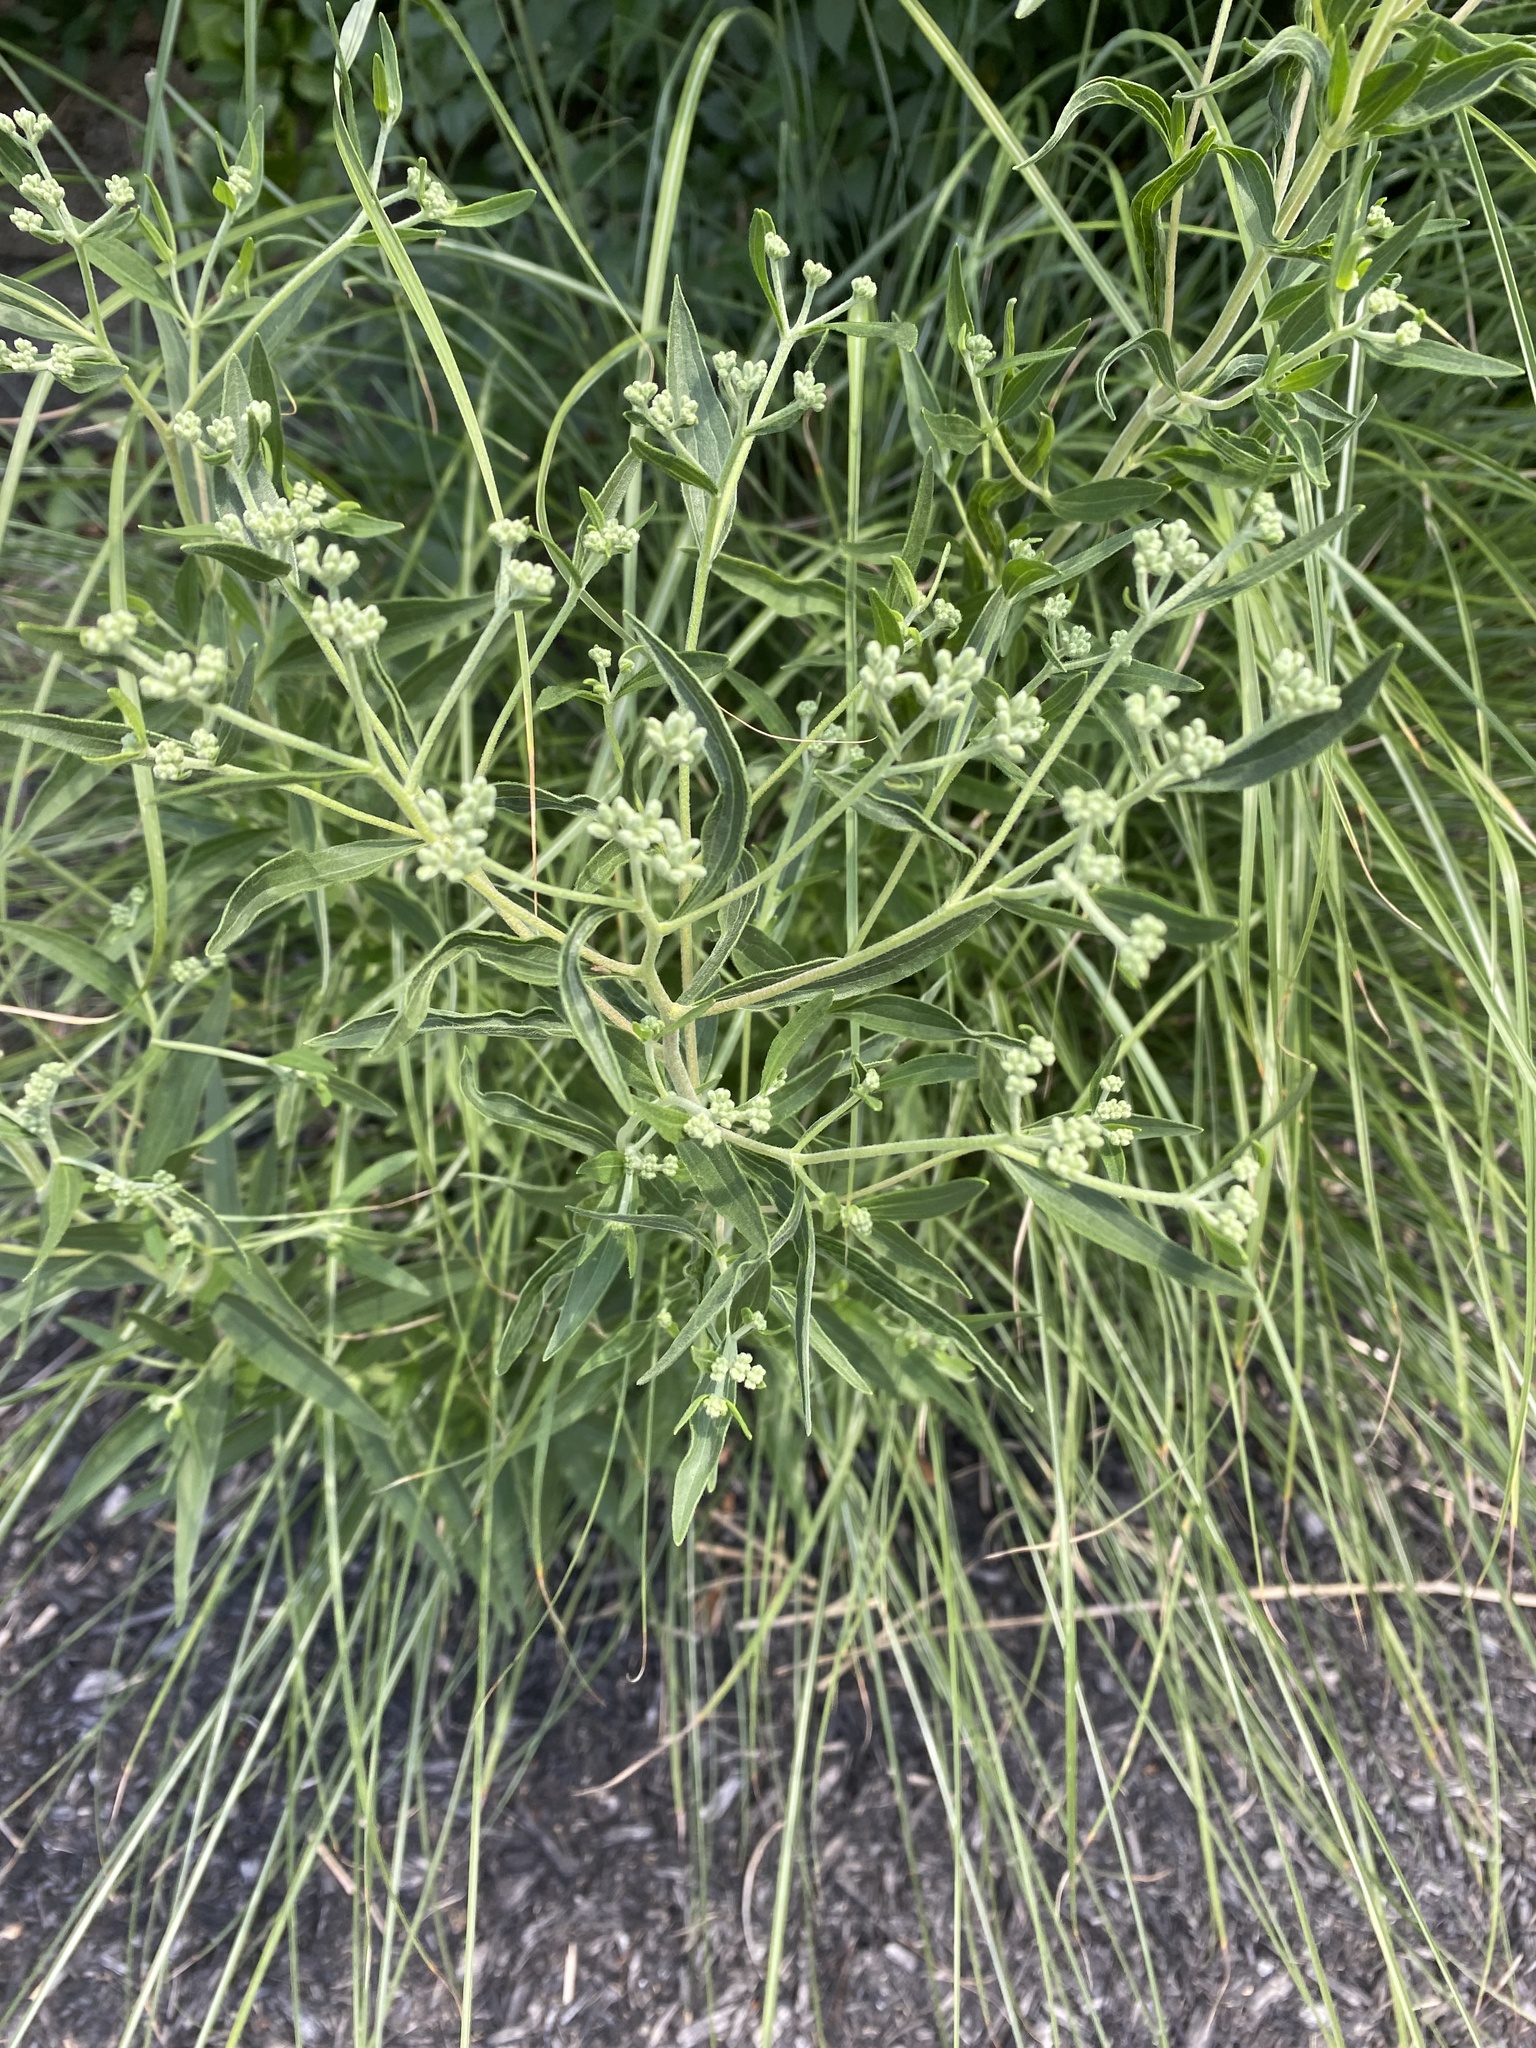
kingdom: Plantae
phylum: Tracheophyta
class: Magnoliopsida
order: Asterales
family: Asteraceae
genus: Eupatorium
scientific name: Eupatorium serotinum
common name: Late boneset
